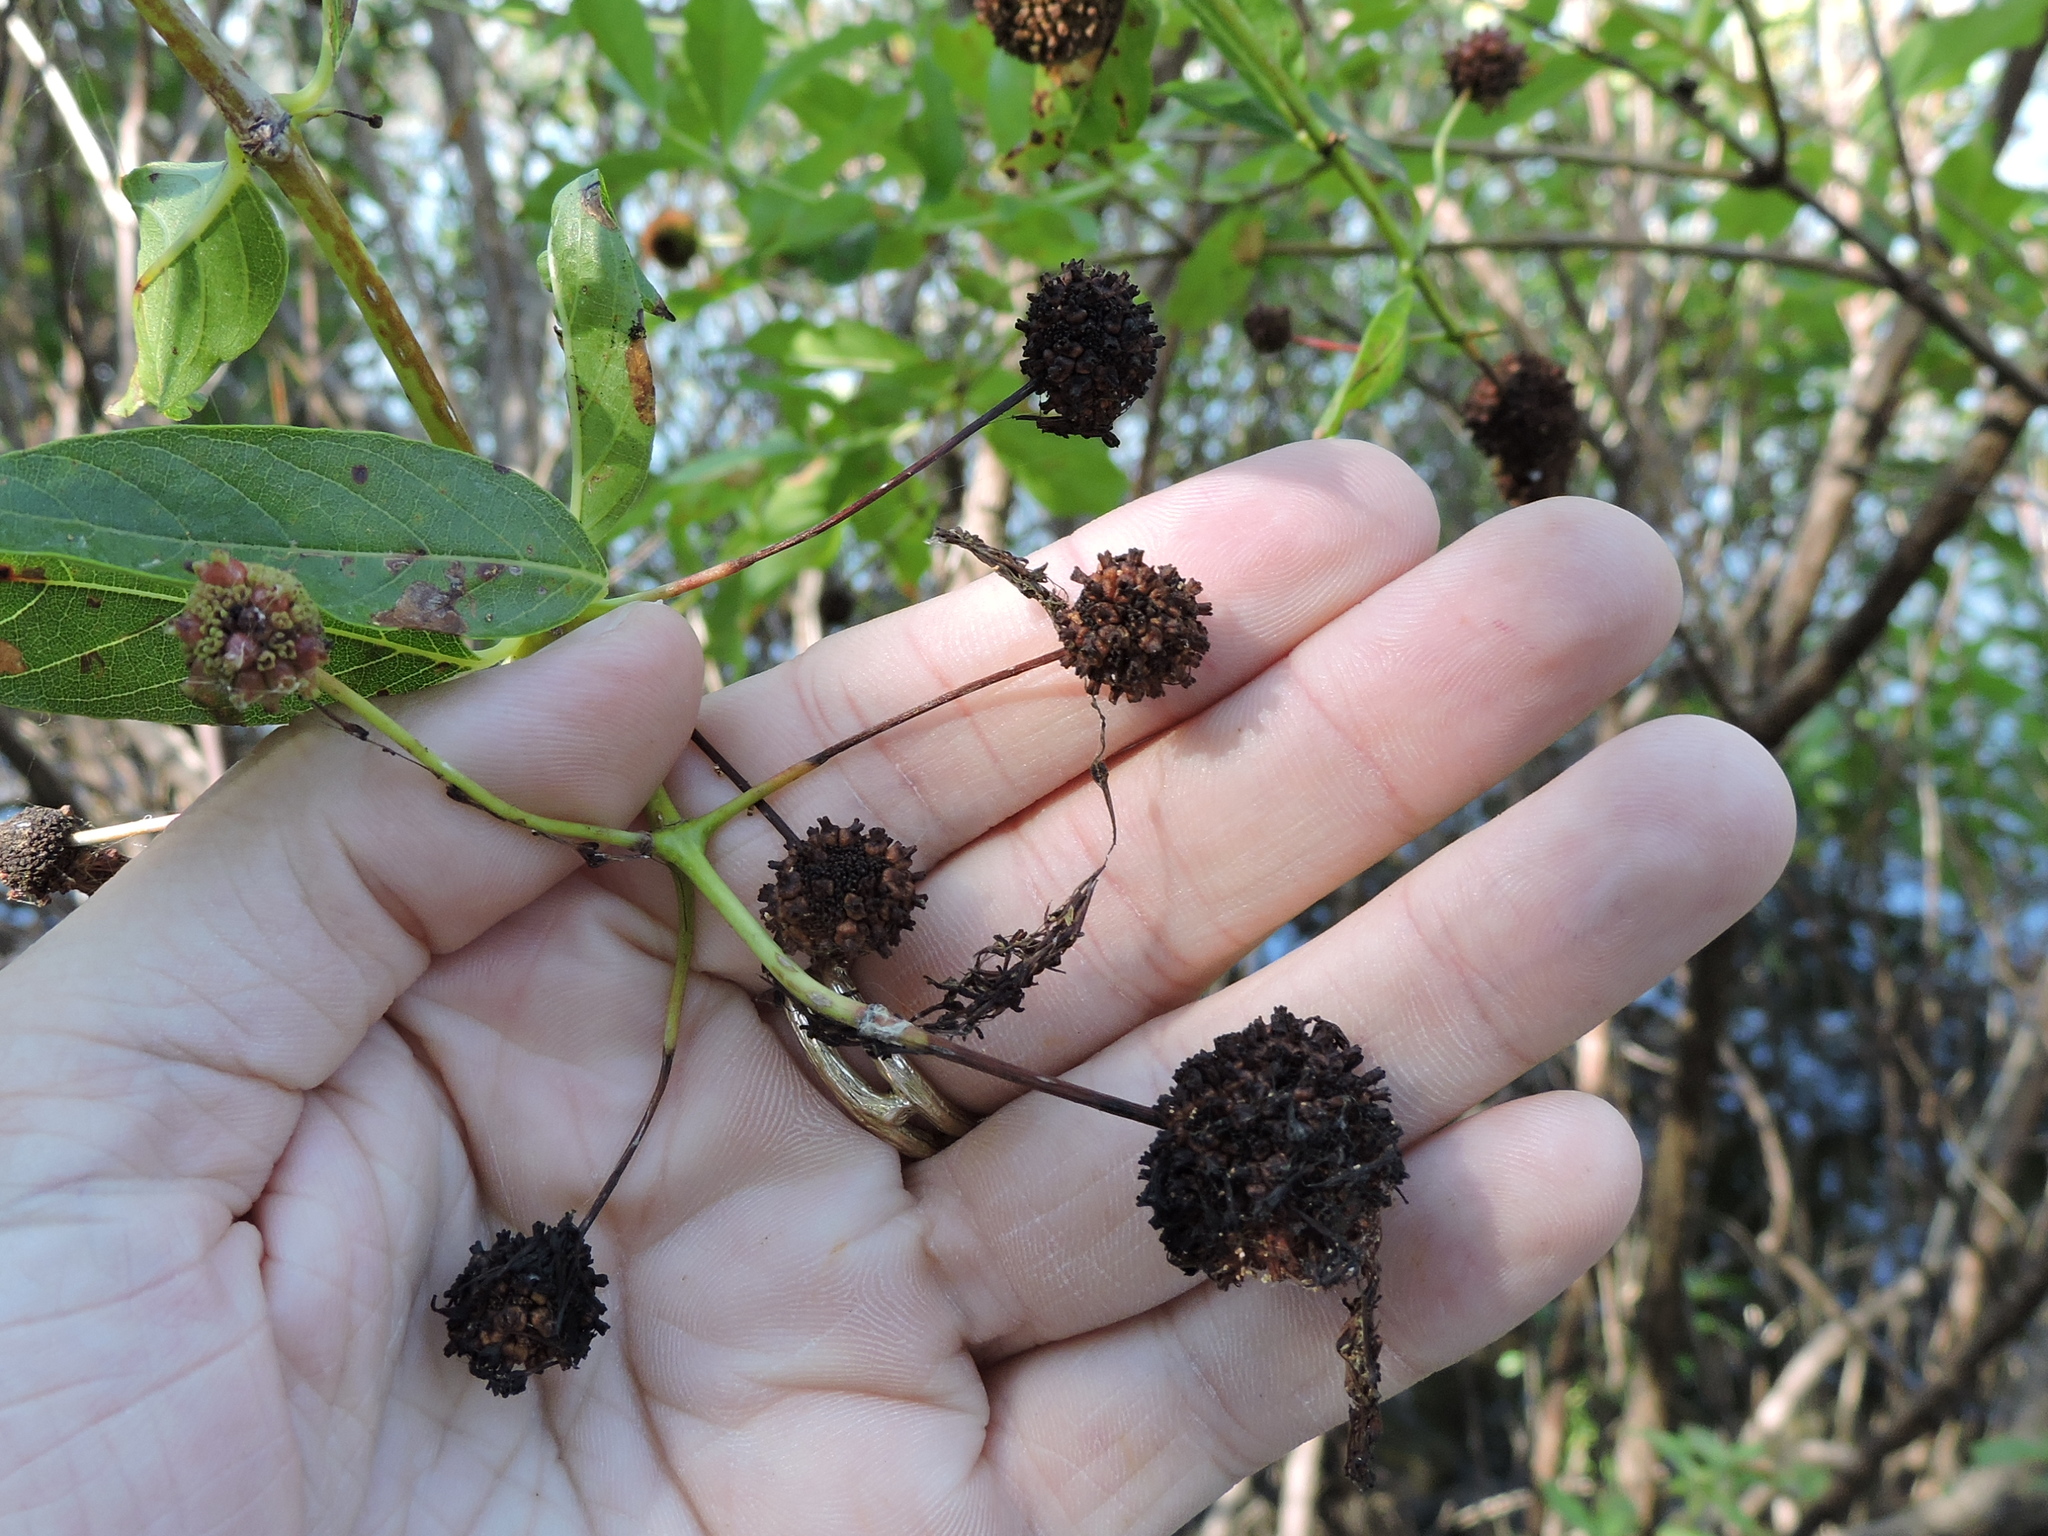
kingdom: Plantae
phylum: Tracheophyta
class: Magnoliopsida
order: Gentianales
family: Rubiaceae
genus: Cephalanthus
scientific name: Cephalanthus occidentalis
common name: Button-willow
